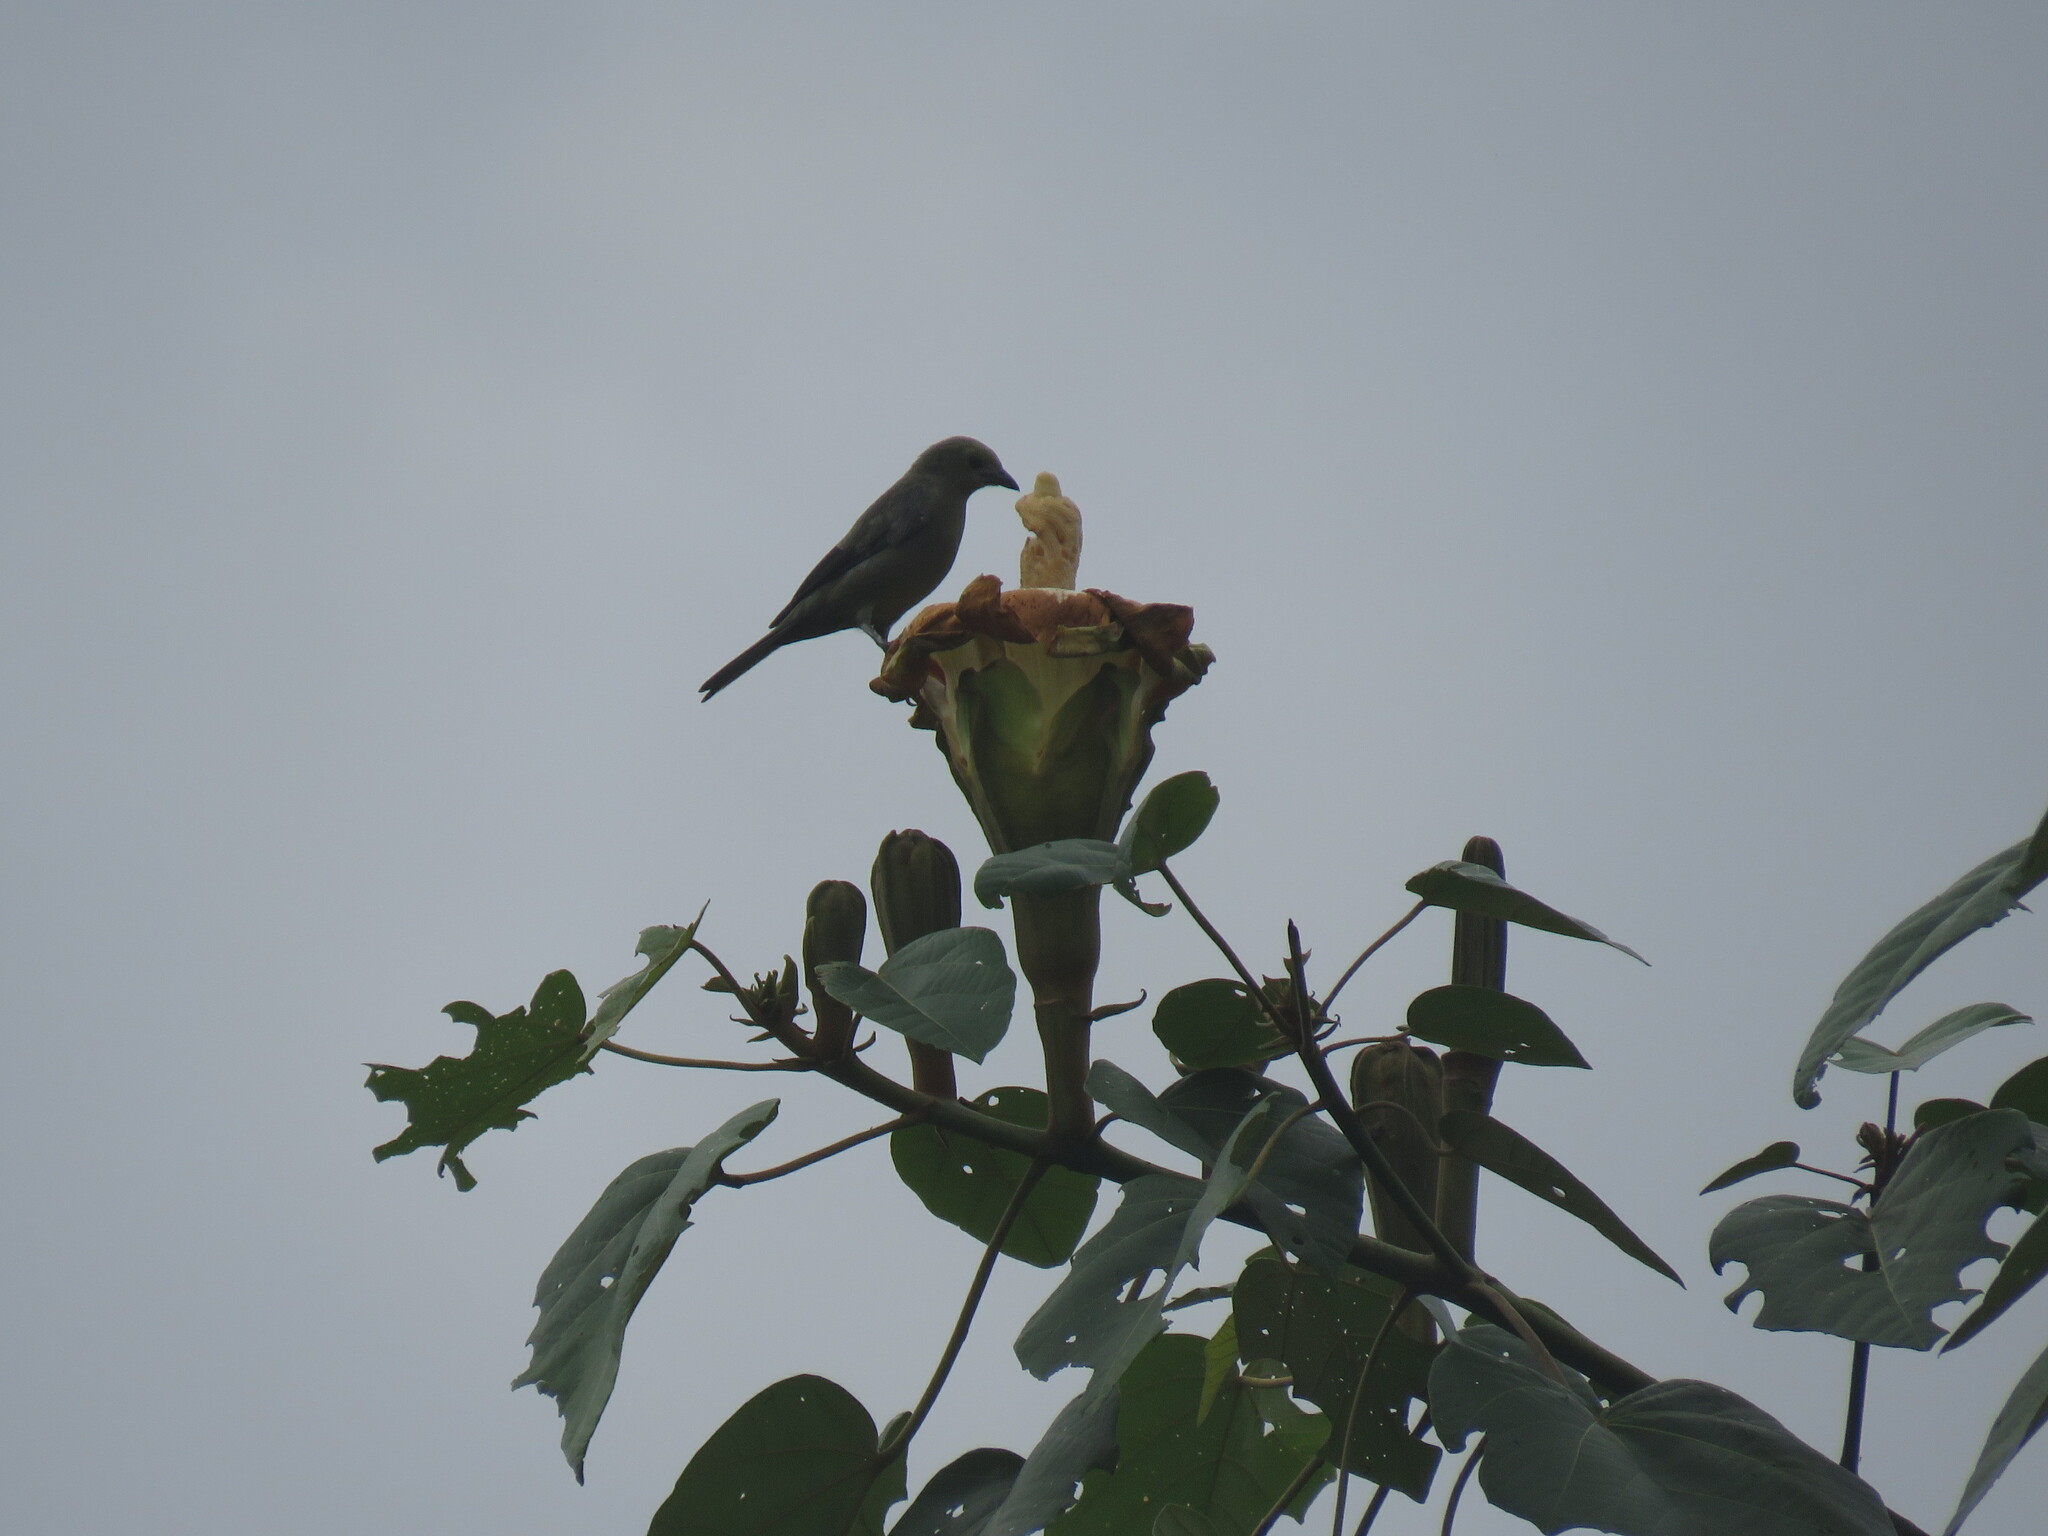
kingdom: Animalia
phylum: Chordata
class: Aves
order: Passeriformes
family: Thraupidae
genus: Thraupis
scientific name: Thraupis palmarum
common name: Palm tanager
